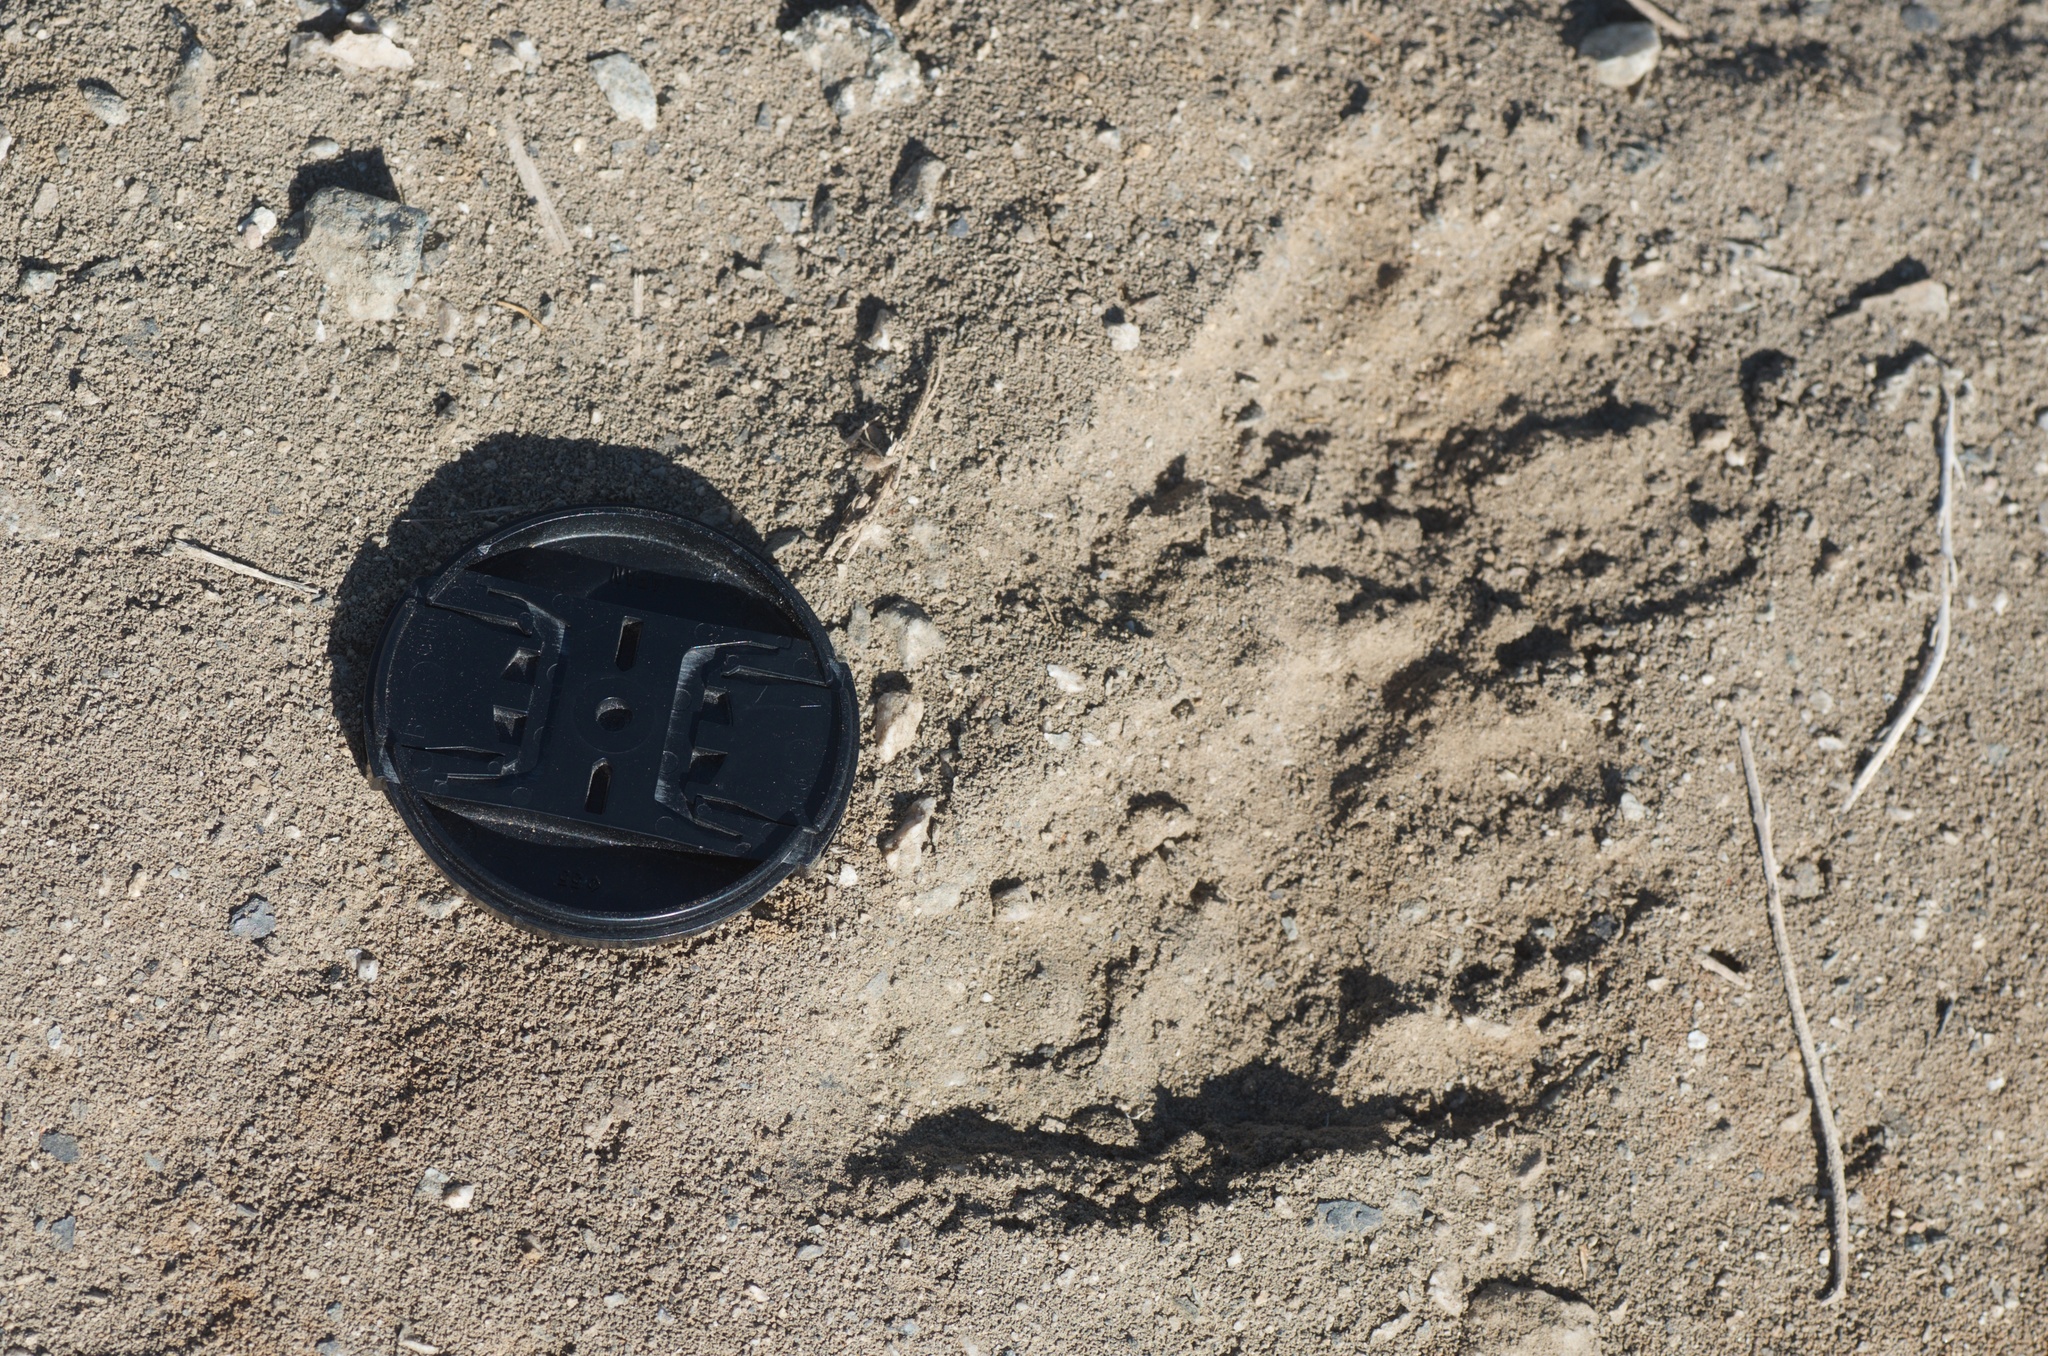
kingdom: Animalia
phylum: Chordata
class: Mammalia
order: Carnivora
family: Procyonidae
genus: Procyon
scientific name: Procyon lotor
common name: Raccoon
